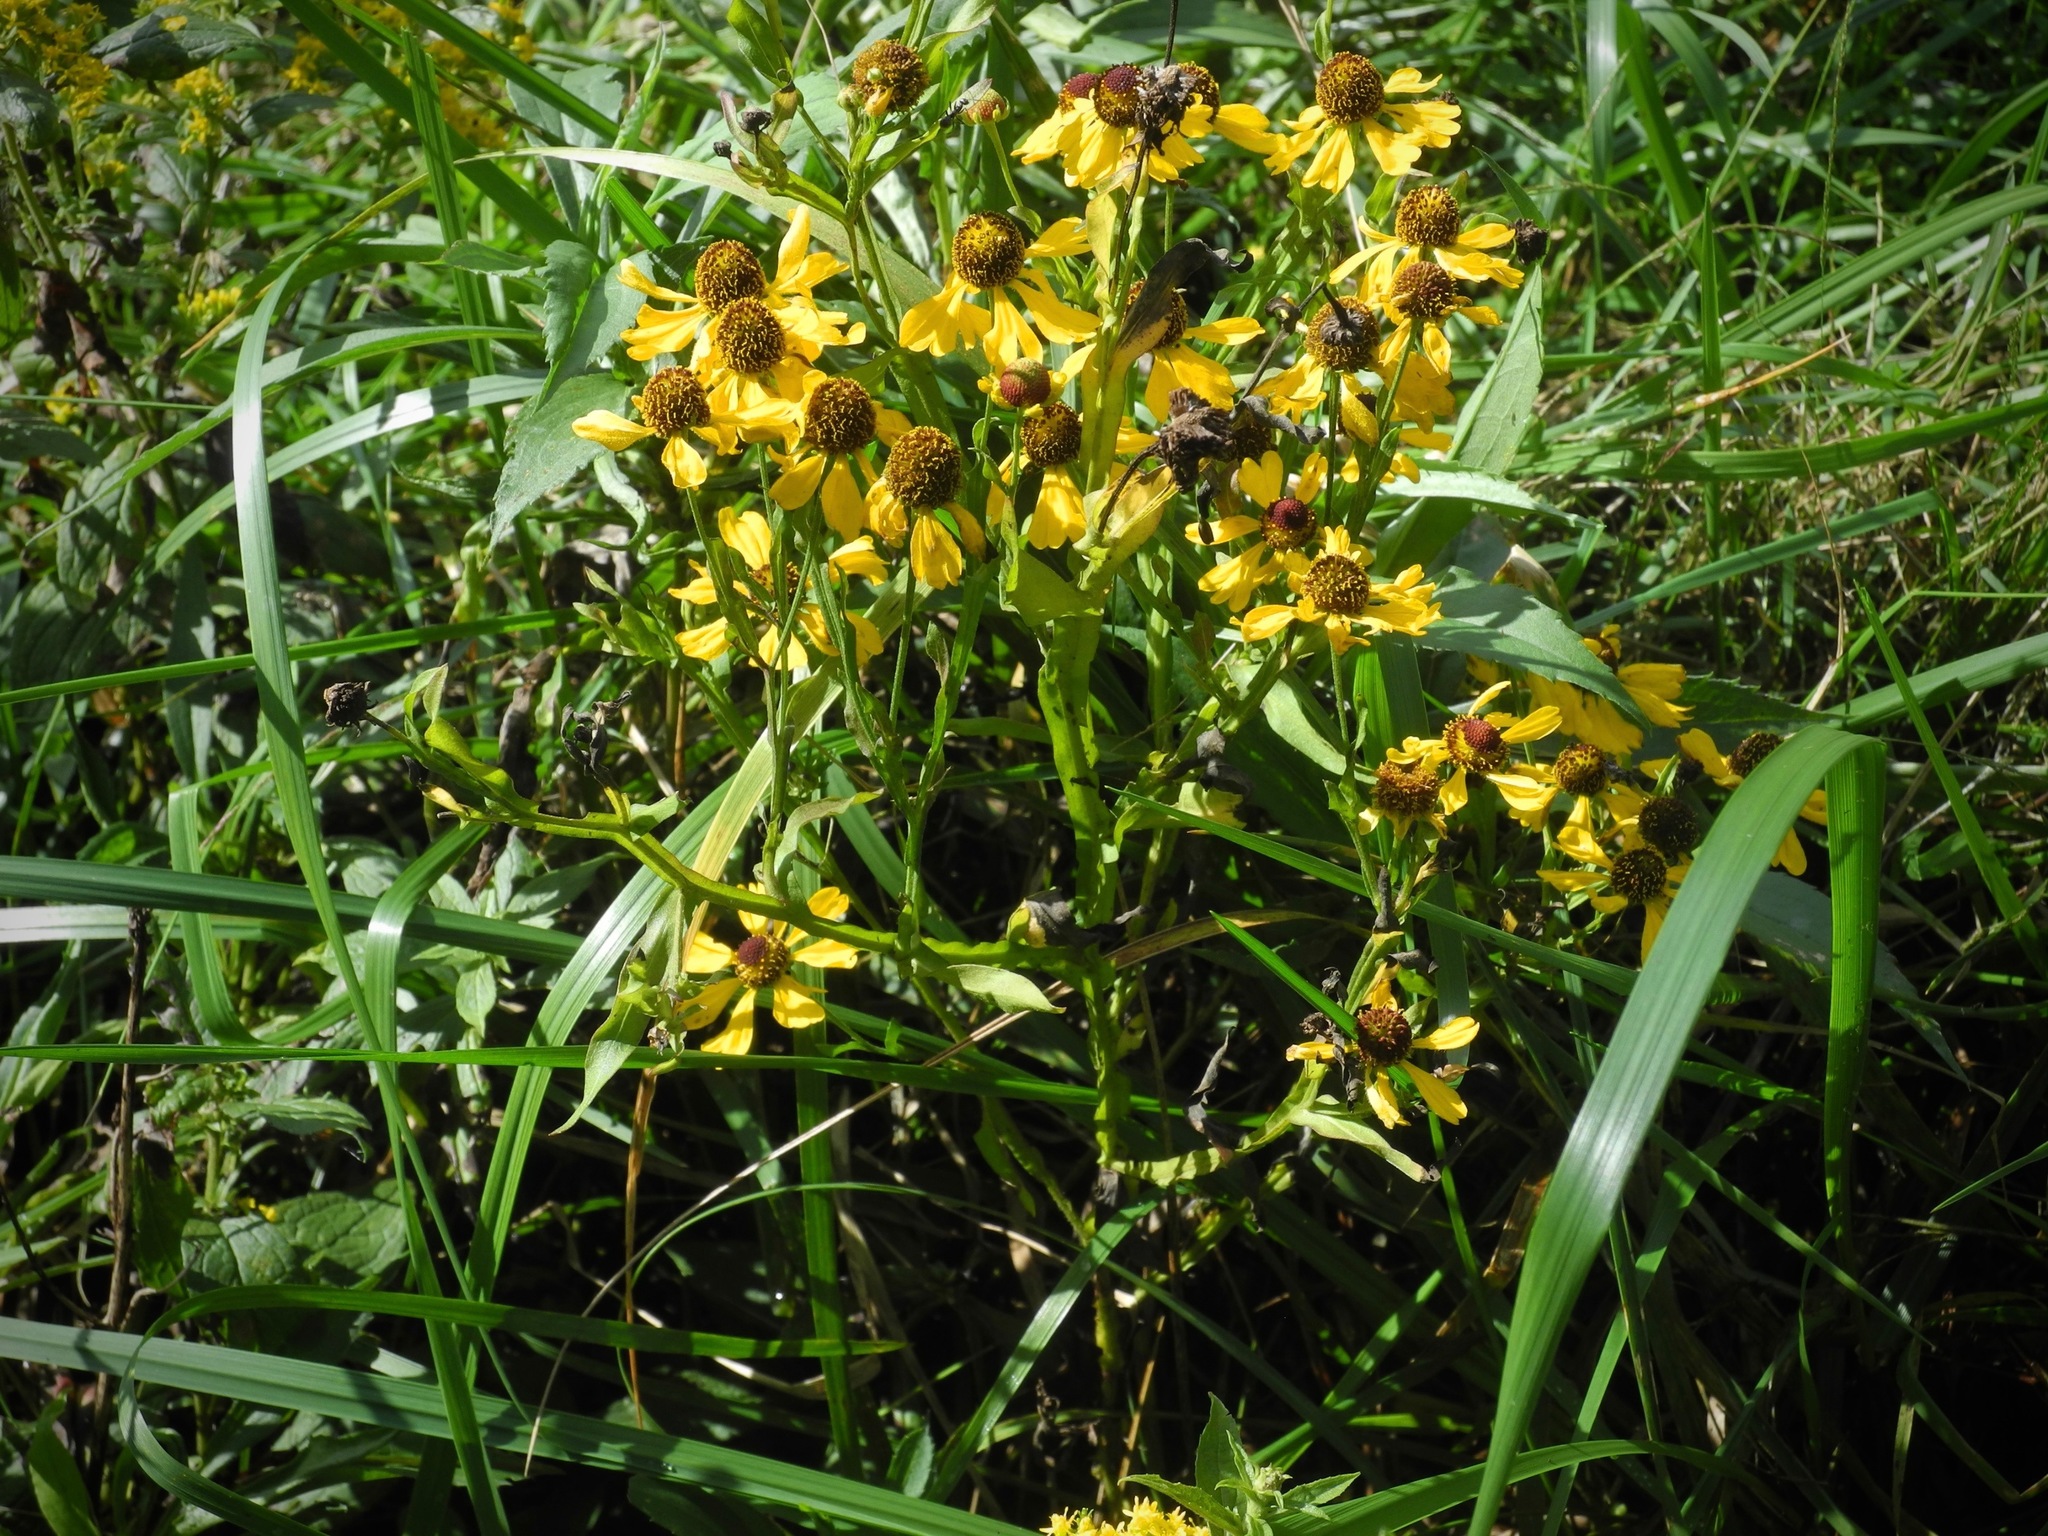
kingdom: Plantae
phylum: Tracheophyta
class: Magnoliopsida
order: Asterales
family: Asteraceae
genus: Helenium
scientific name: Helenium flexuosum
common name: Naked-flowered sneezeweed
